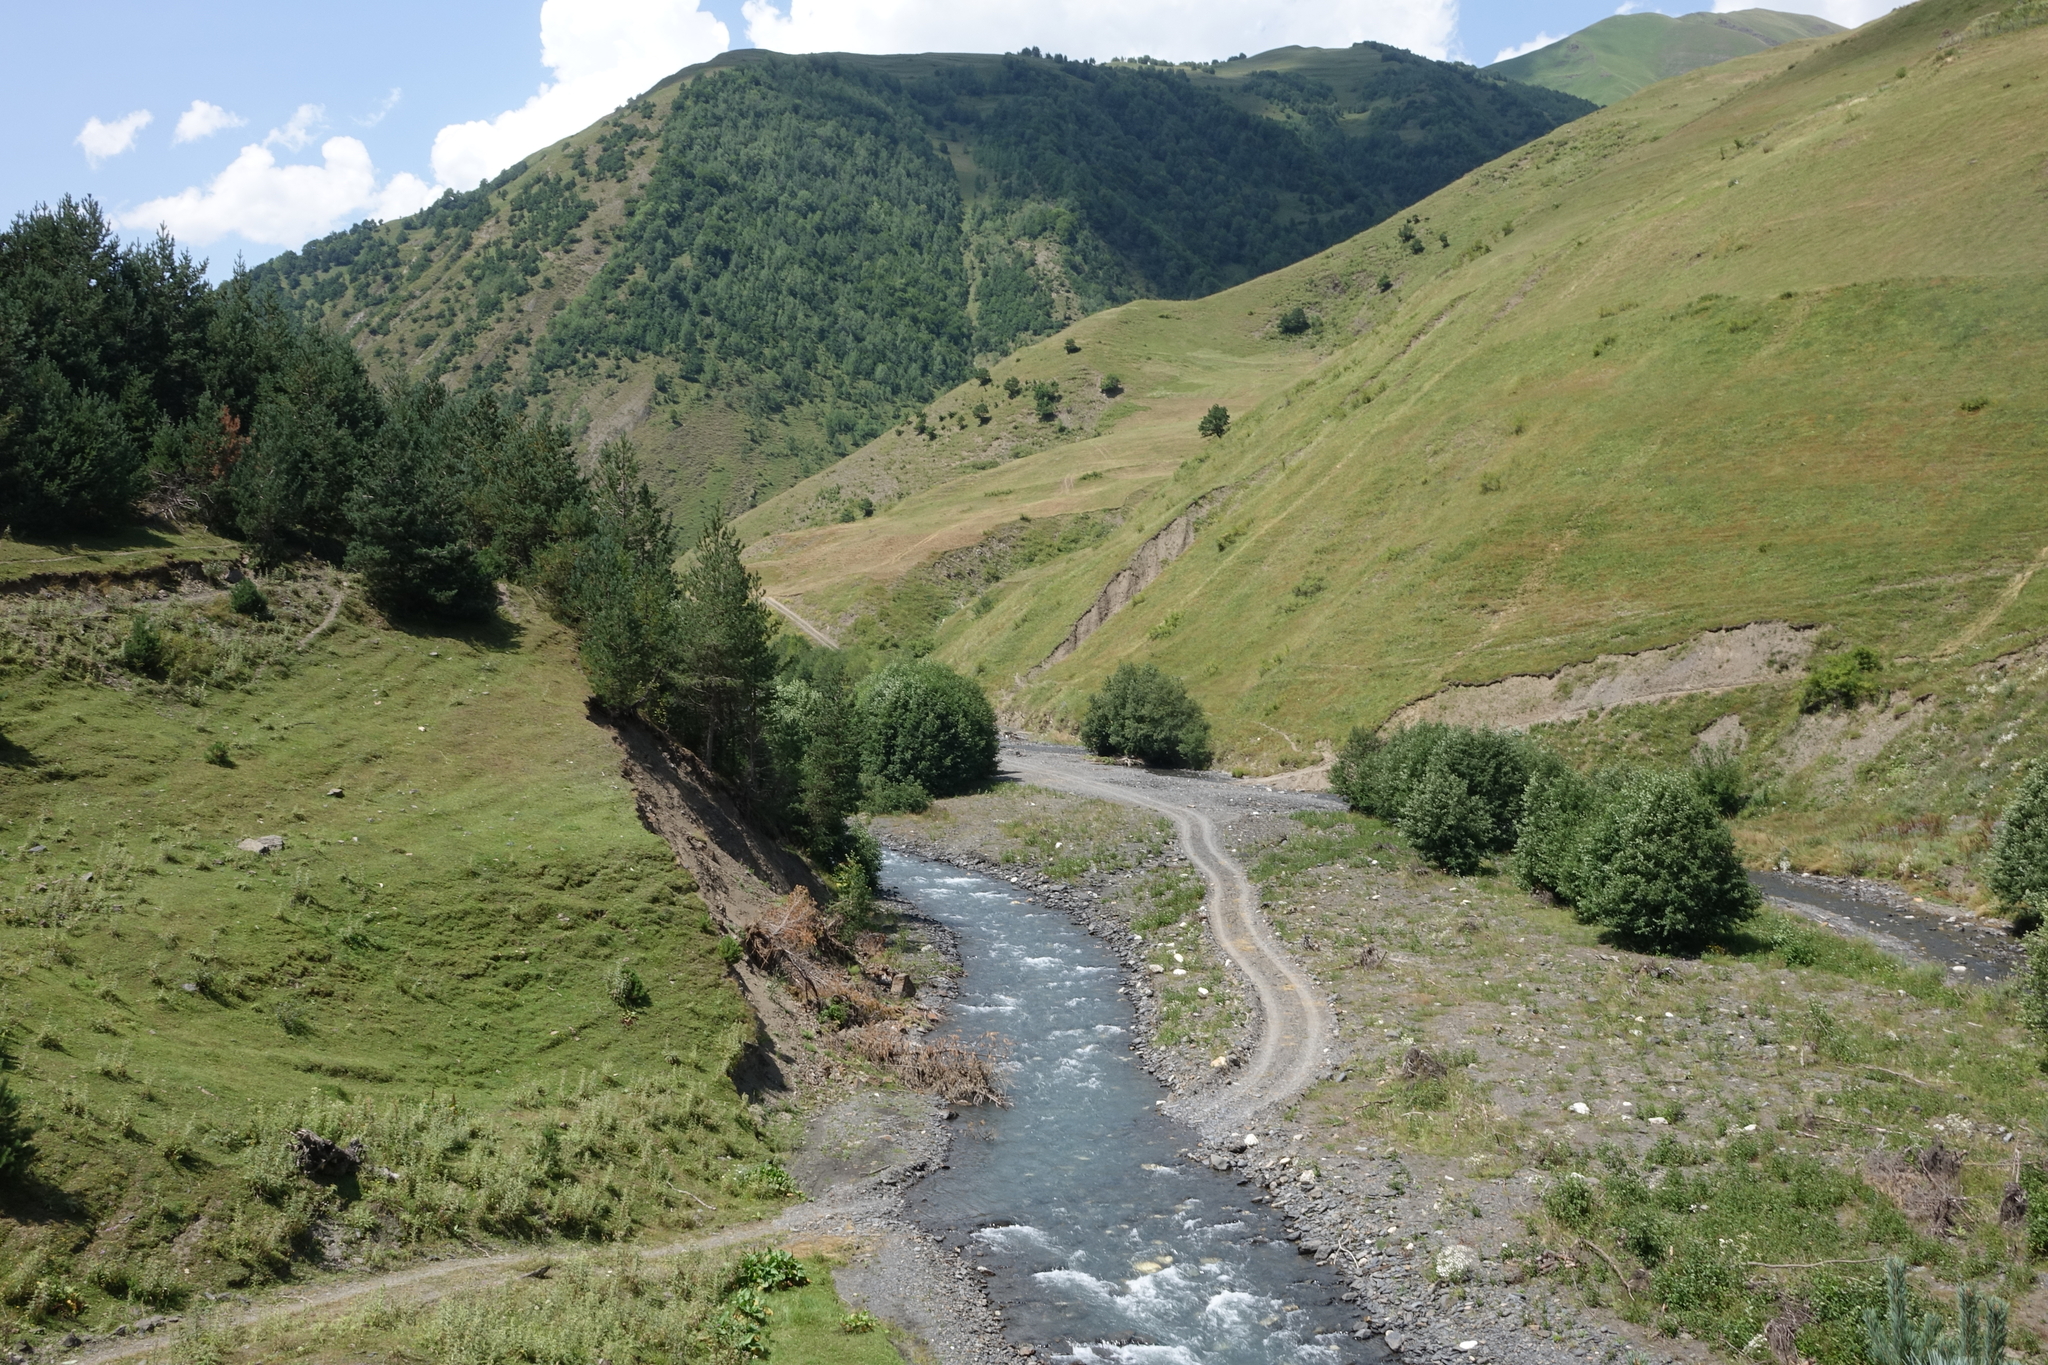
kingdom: Plantae
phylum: Tracheophyta
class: Pinopsida
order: Pinales
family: Pinaceae
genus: Pinus
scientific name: Pinus sylvestris
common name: Scots pine
